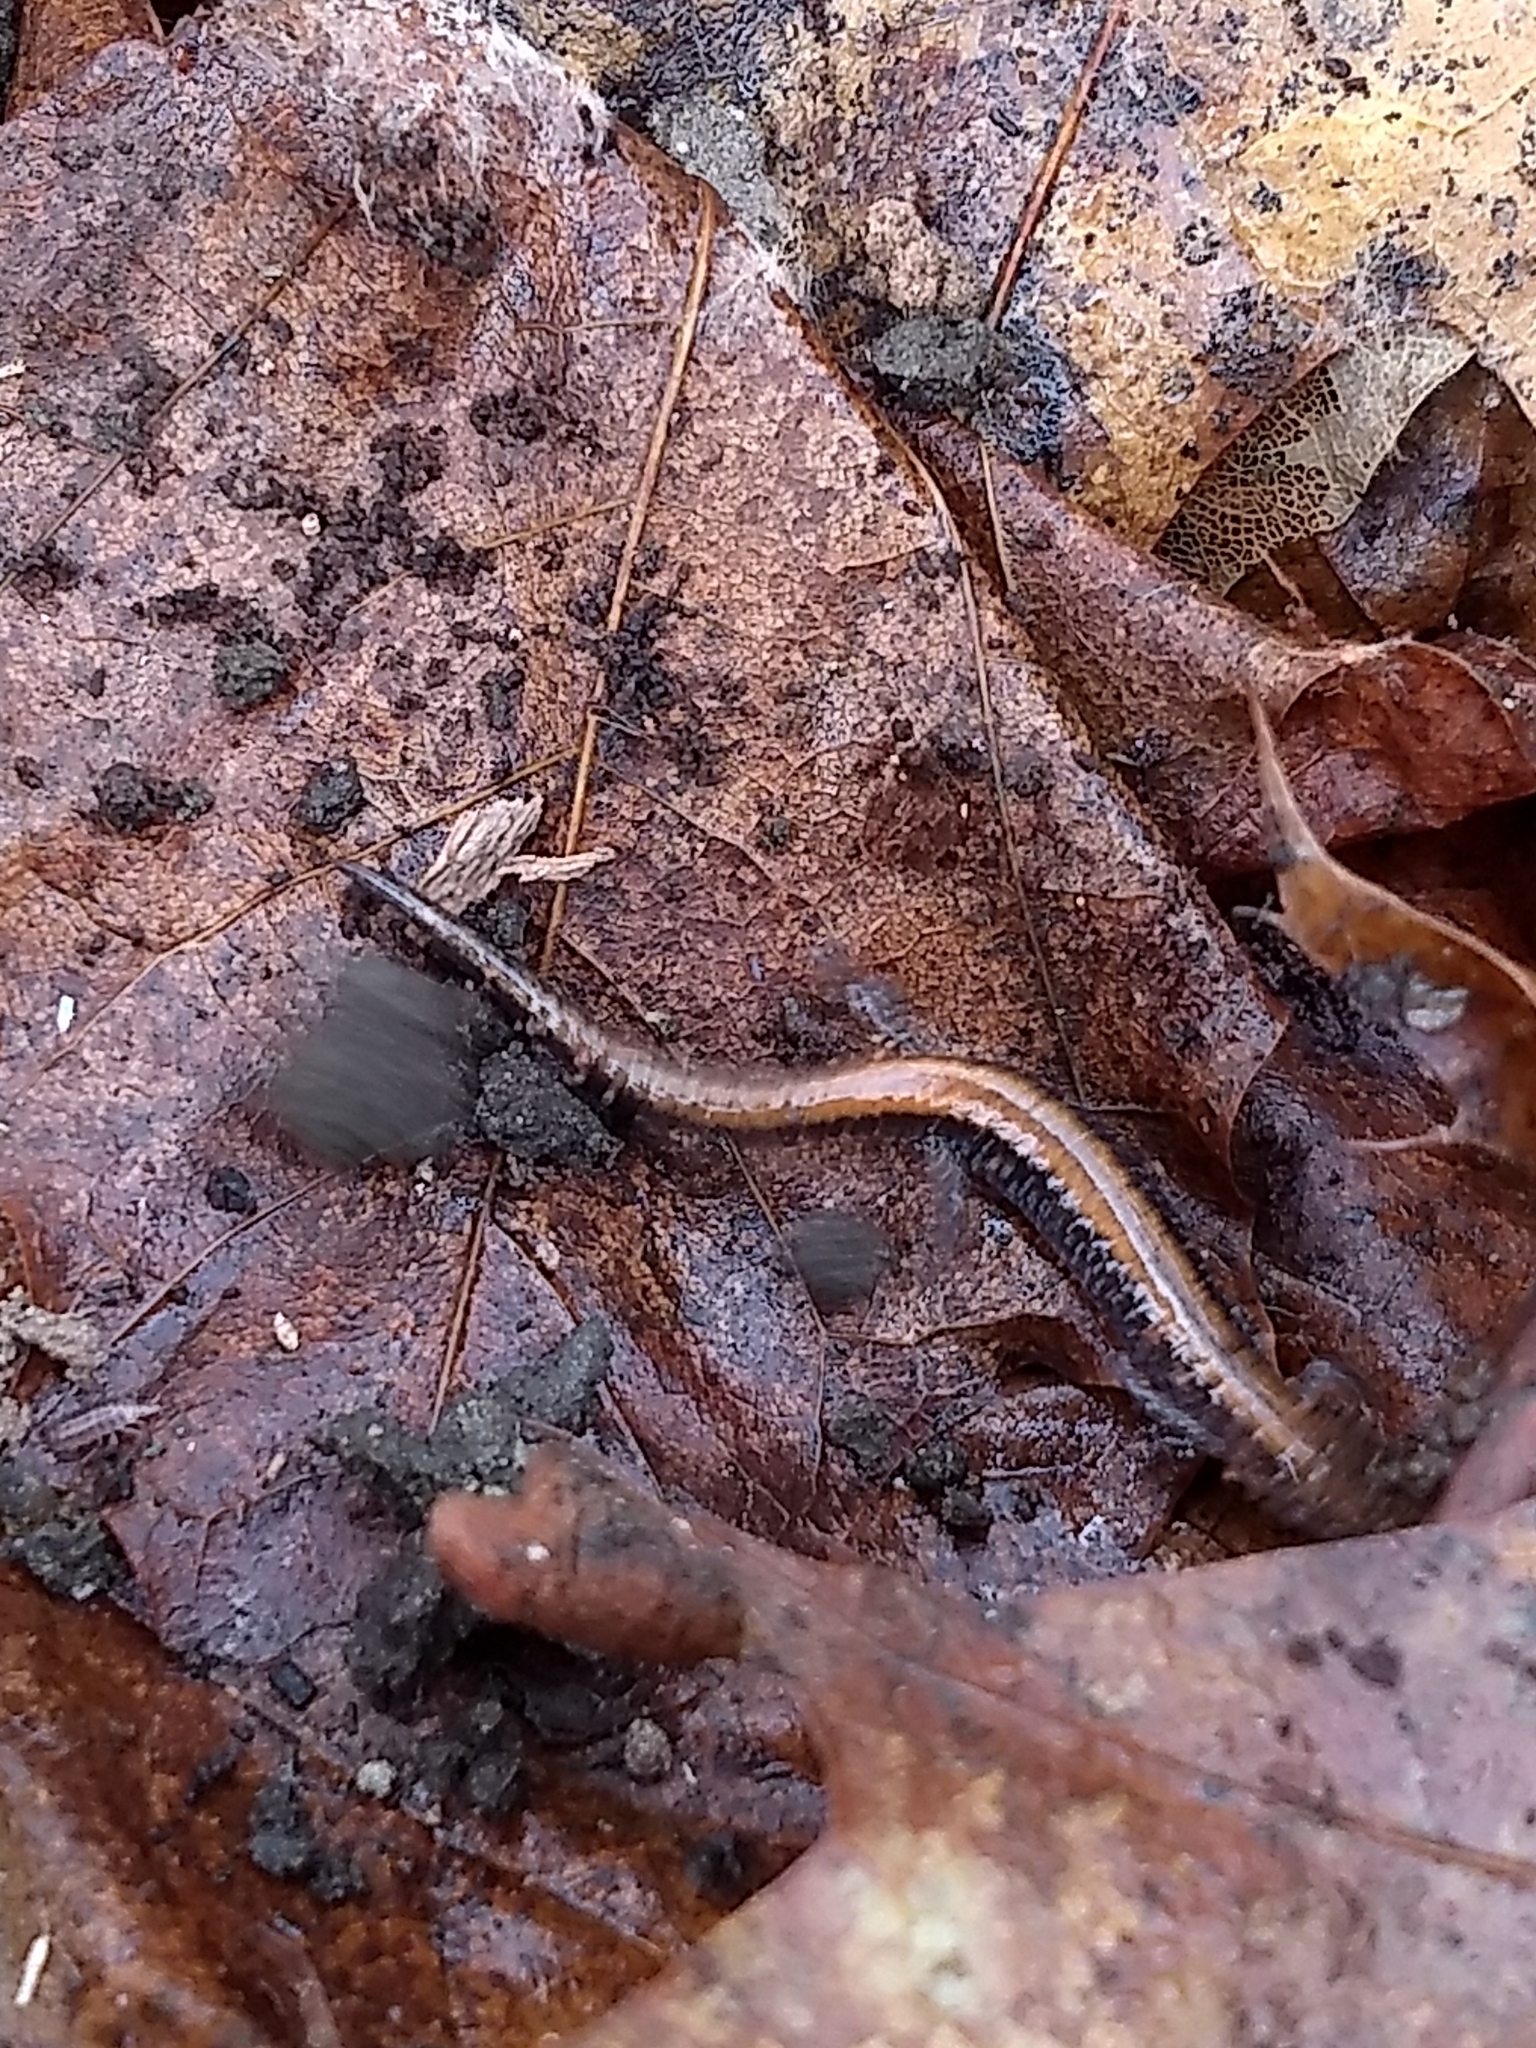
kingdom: Animalia
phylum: Chordata
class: Amphibia
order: Caudata
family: Plethodontidae
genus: Plethodon
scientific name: Plethodon cinereus
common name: Redback salamander
